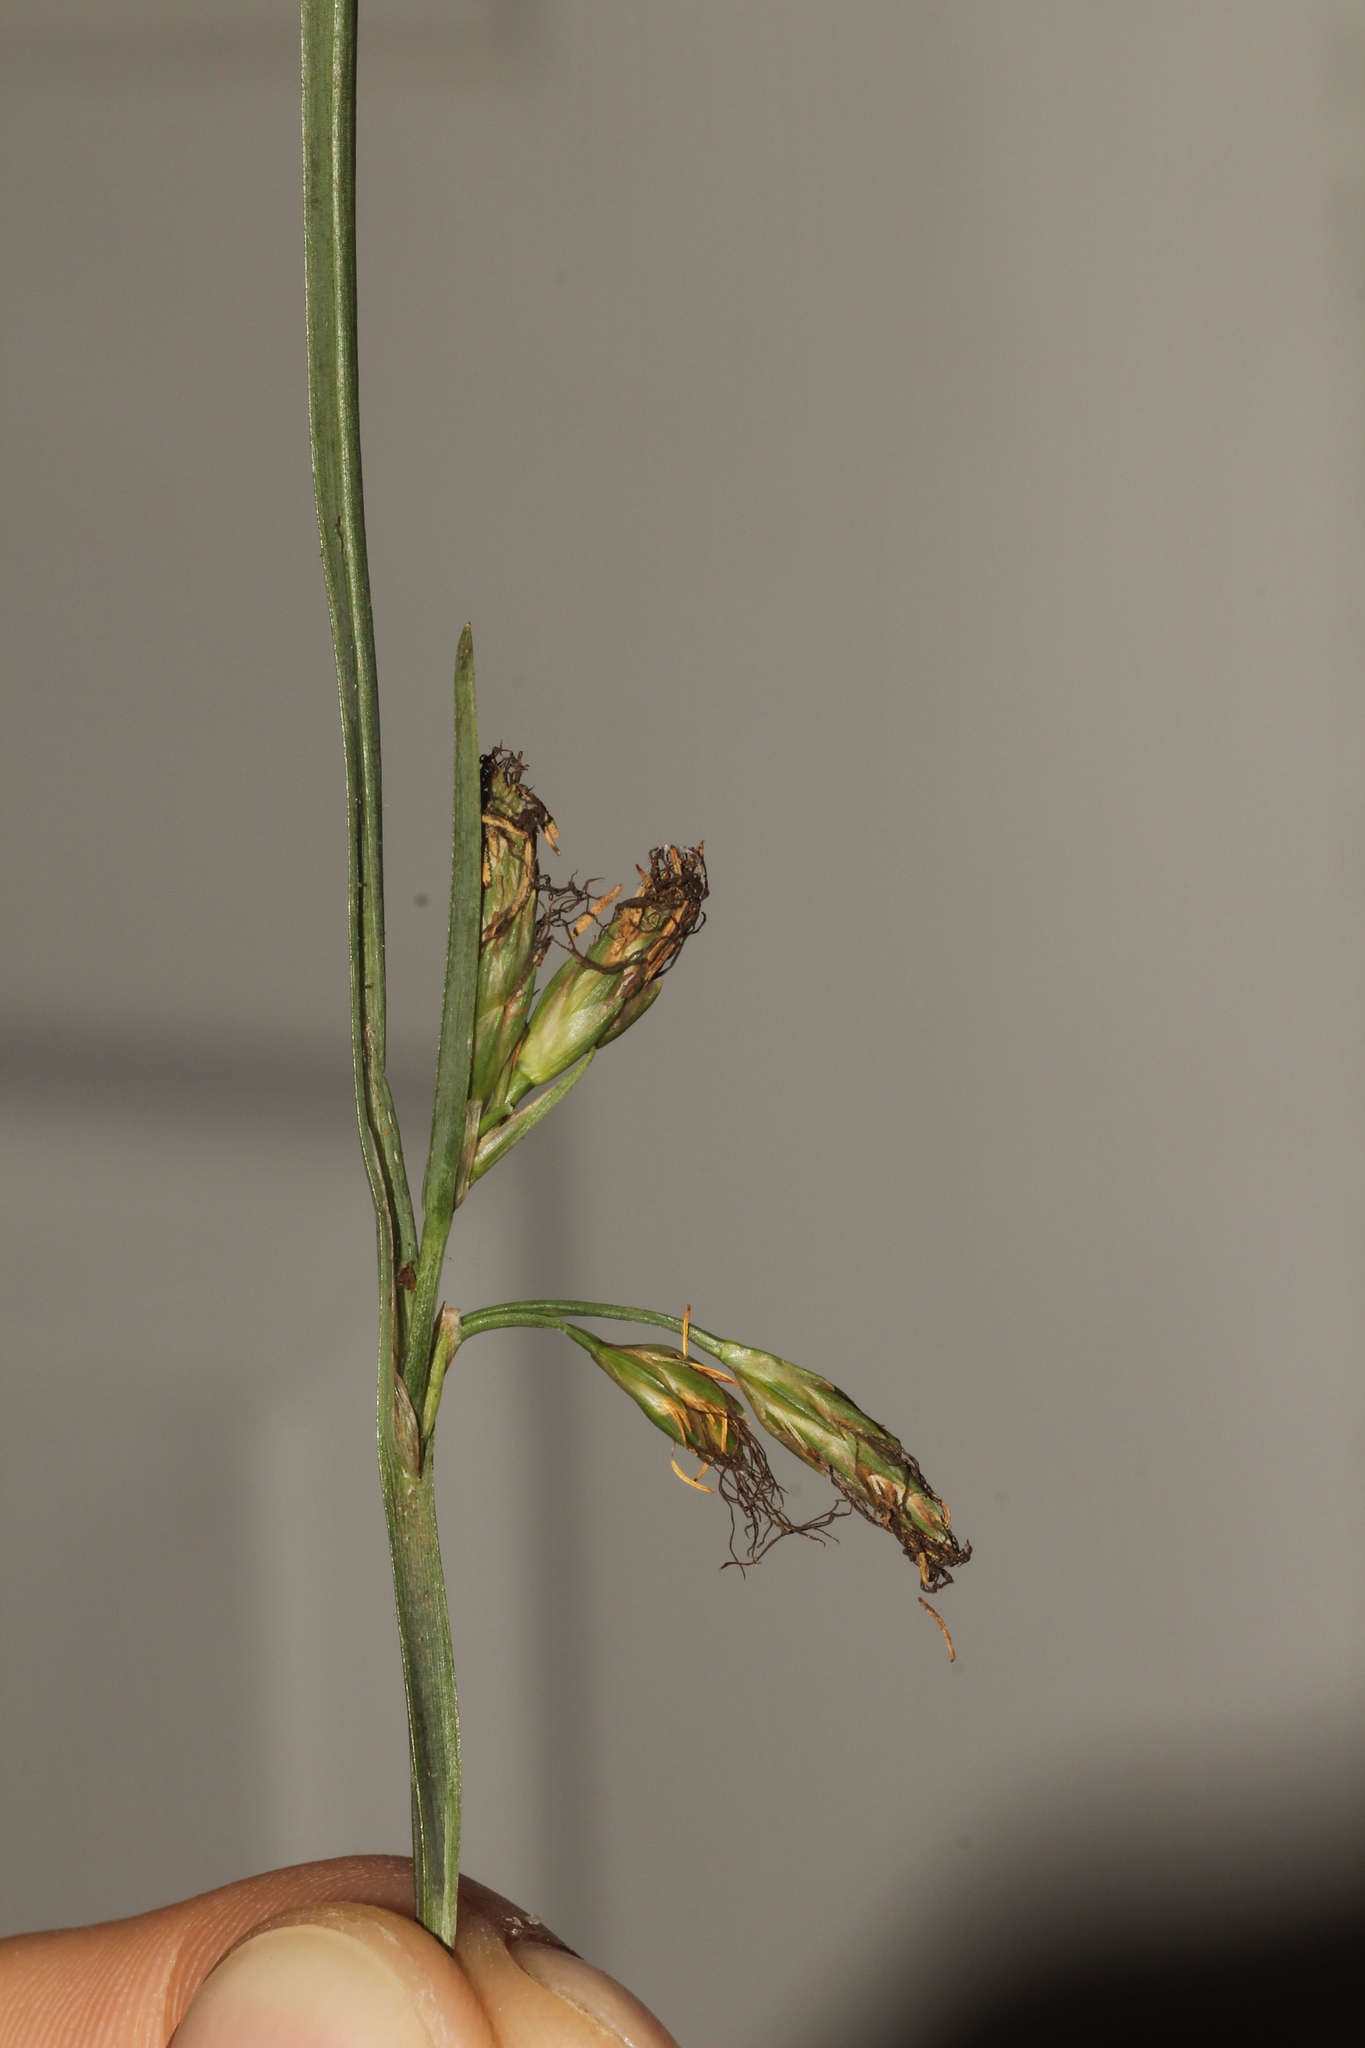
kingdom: Plantae
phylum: Tracheophyta
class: Liliopsida
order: Poales
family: Cyperaceae
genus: Schoenoplectus
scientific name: Schoenoplectus etuberculatus
